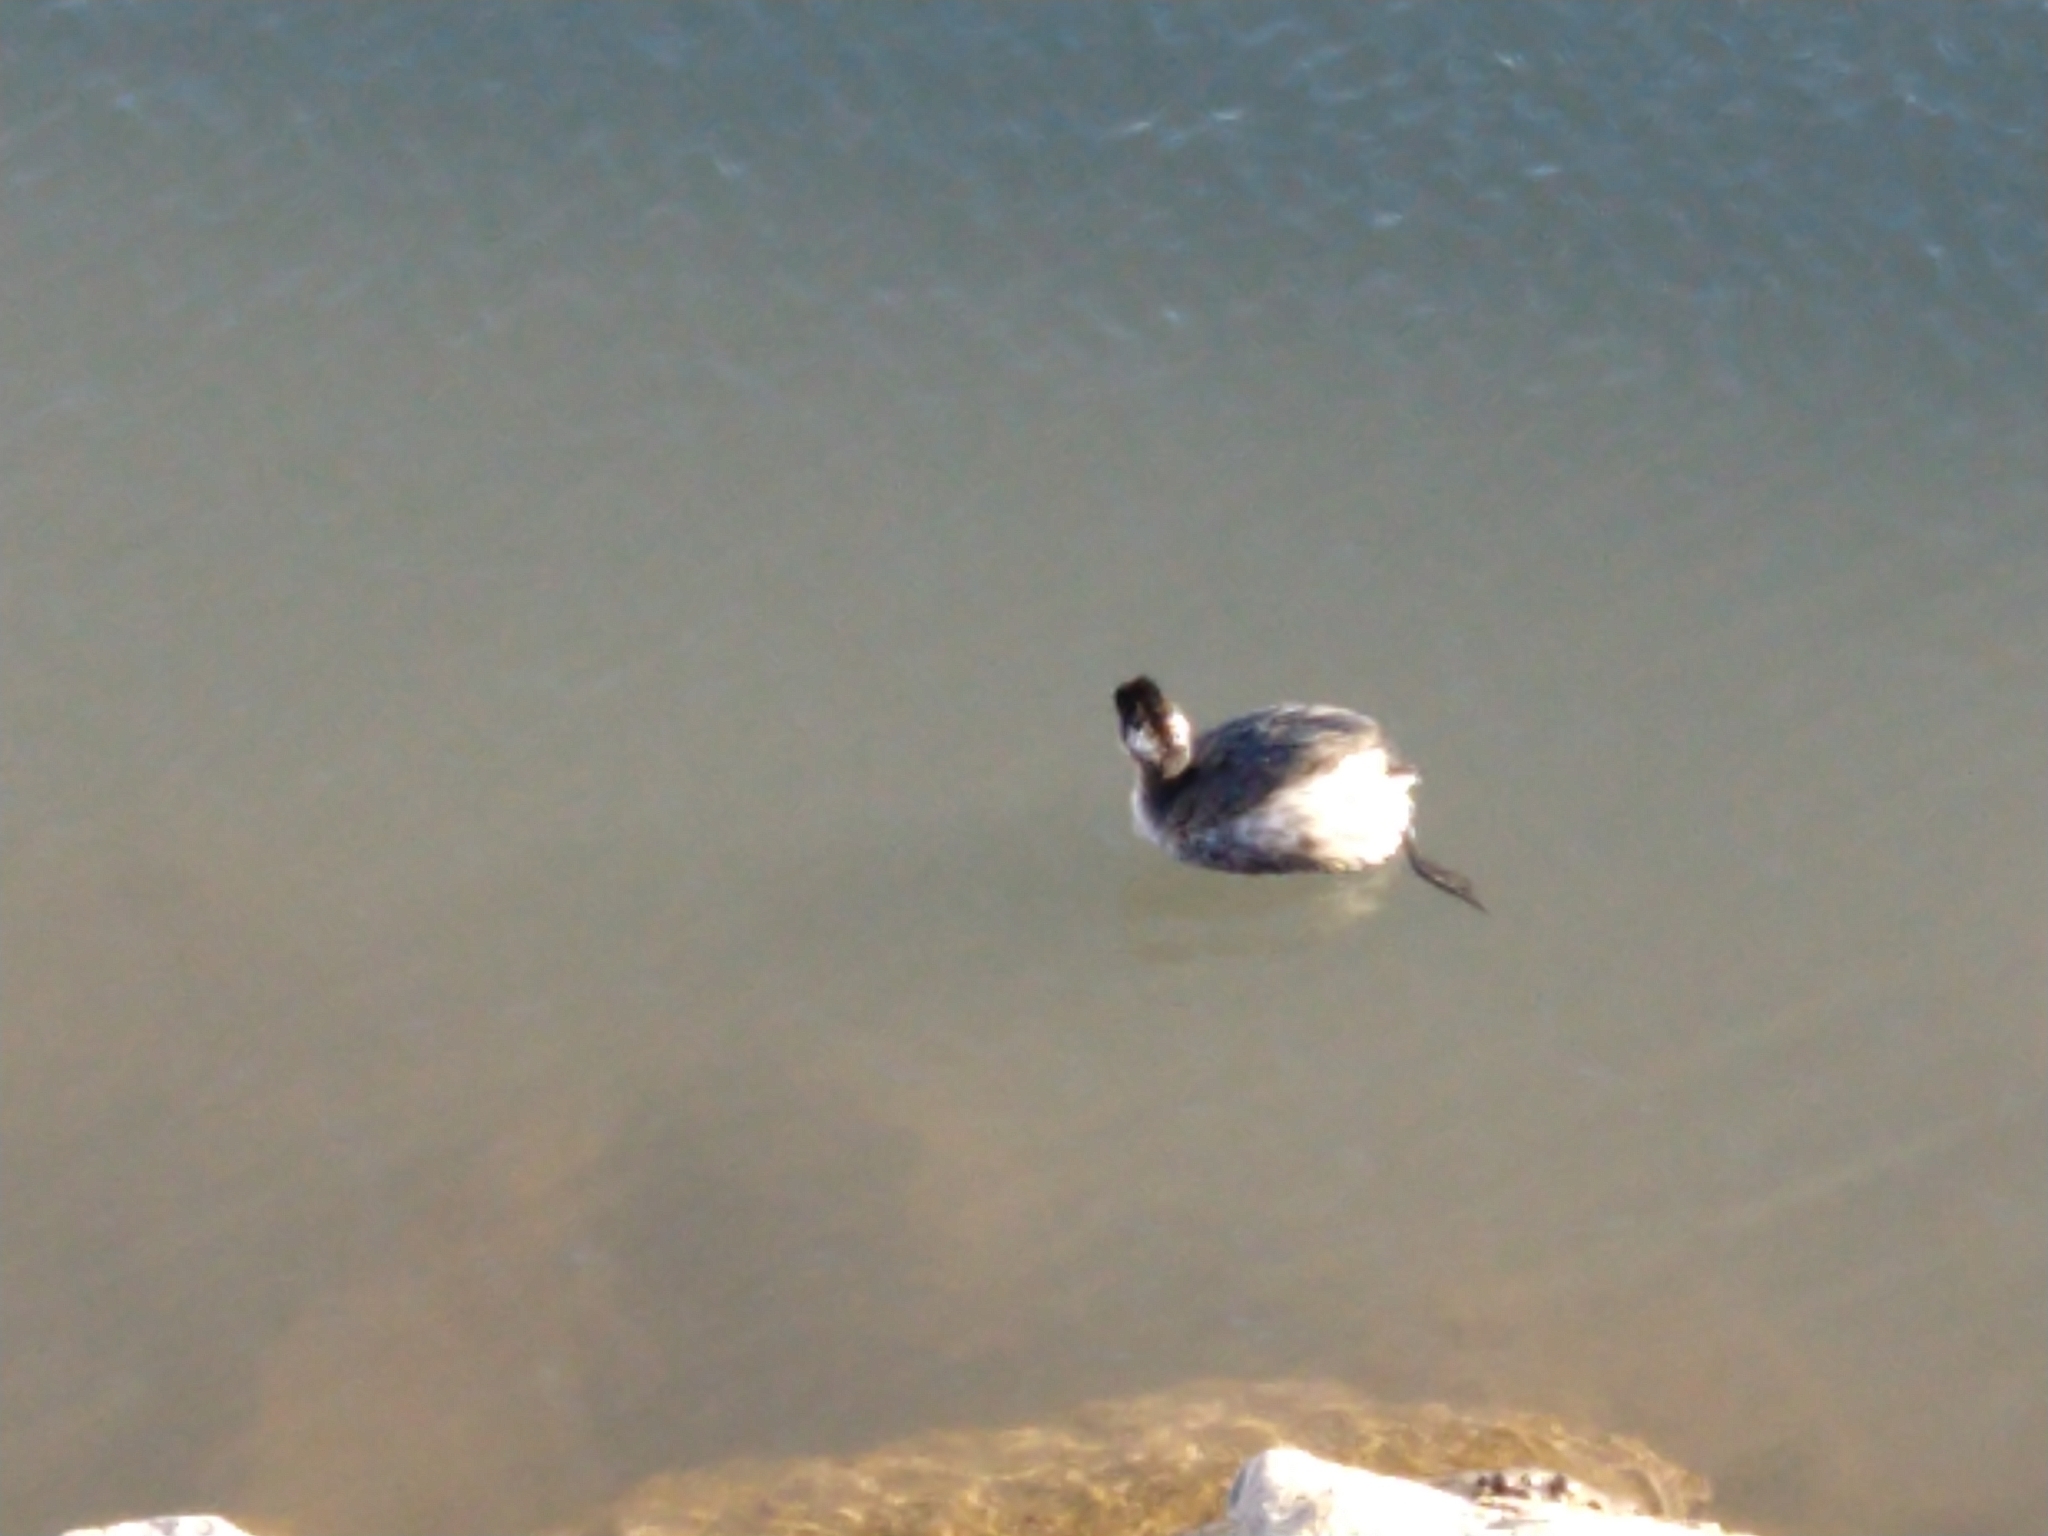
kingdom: Animalia
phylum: Chordata
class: Aves
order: Podicipediformes
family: Podicipedidae
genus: Podiceps
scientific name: Podiceps nigricollis
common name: Black-necked grebe
